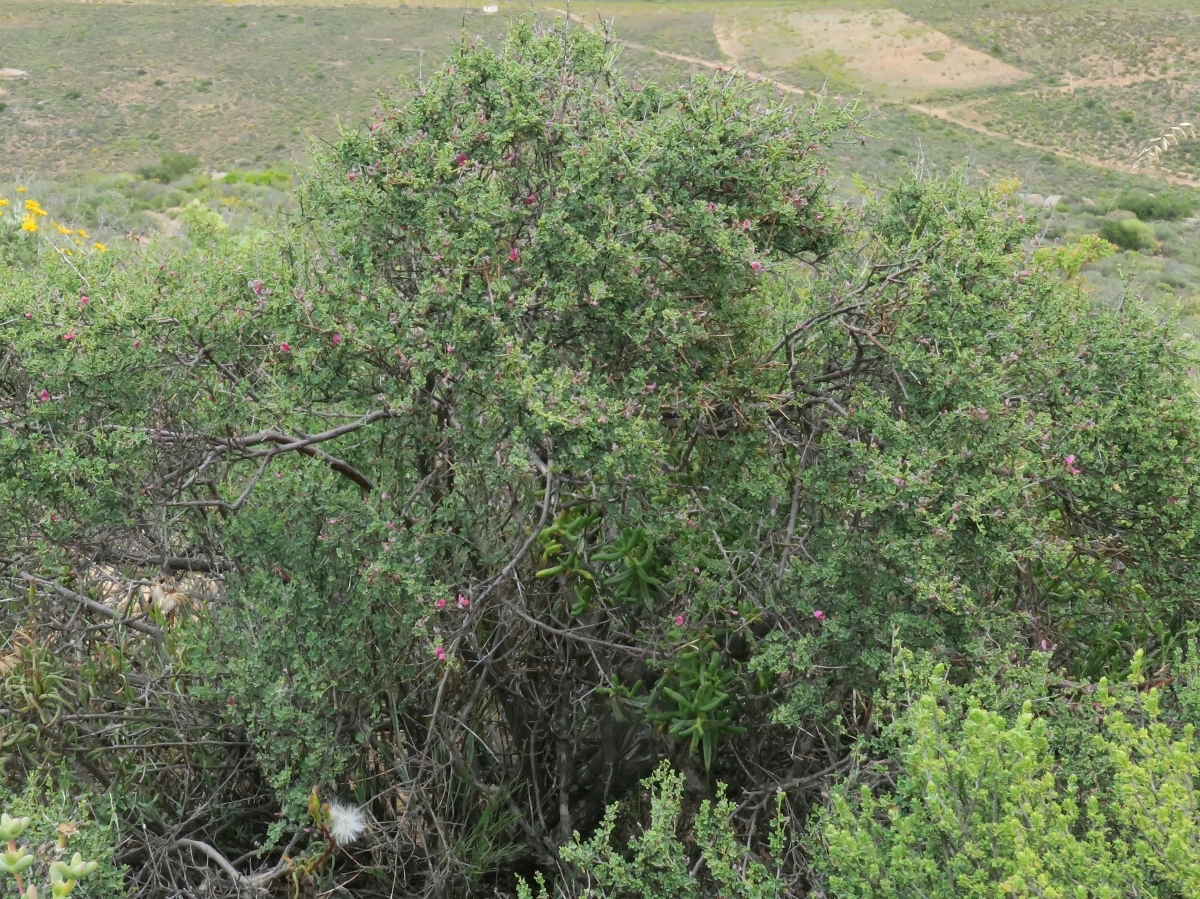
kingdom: Plantae
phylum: Tracheophyta
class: Magnoliopsida
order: Fabales
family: Fabaceae
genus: Indigofera
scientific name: Indigofera spinescens
